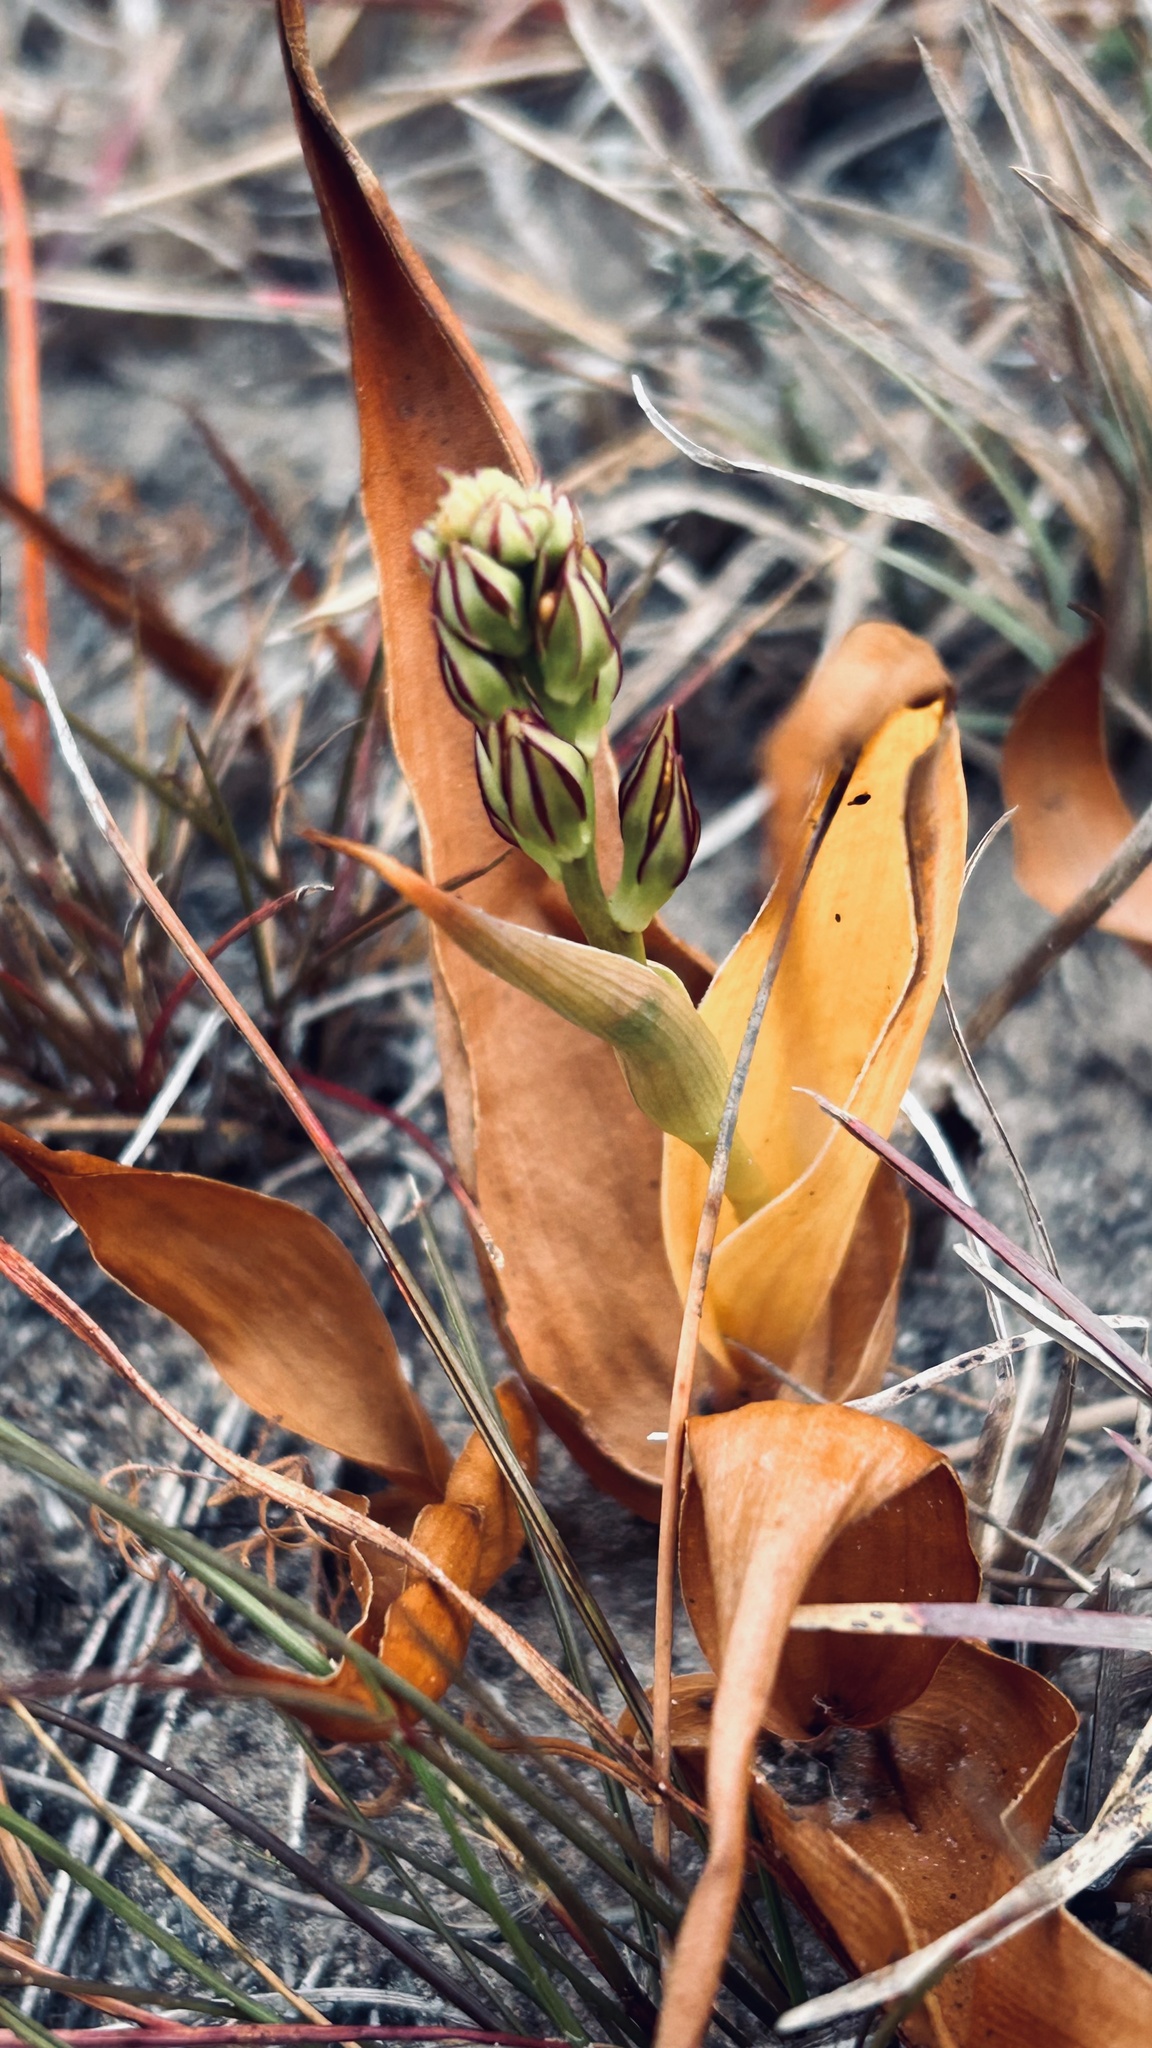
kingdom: Plantae
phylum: Tracheophyta
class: Liliopsida
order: Liliales
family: Colchicaceae
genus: Wurmbea
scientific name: Wurmbea variabilis
